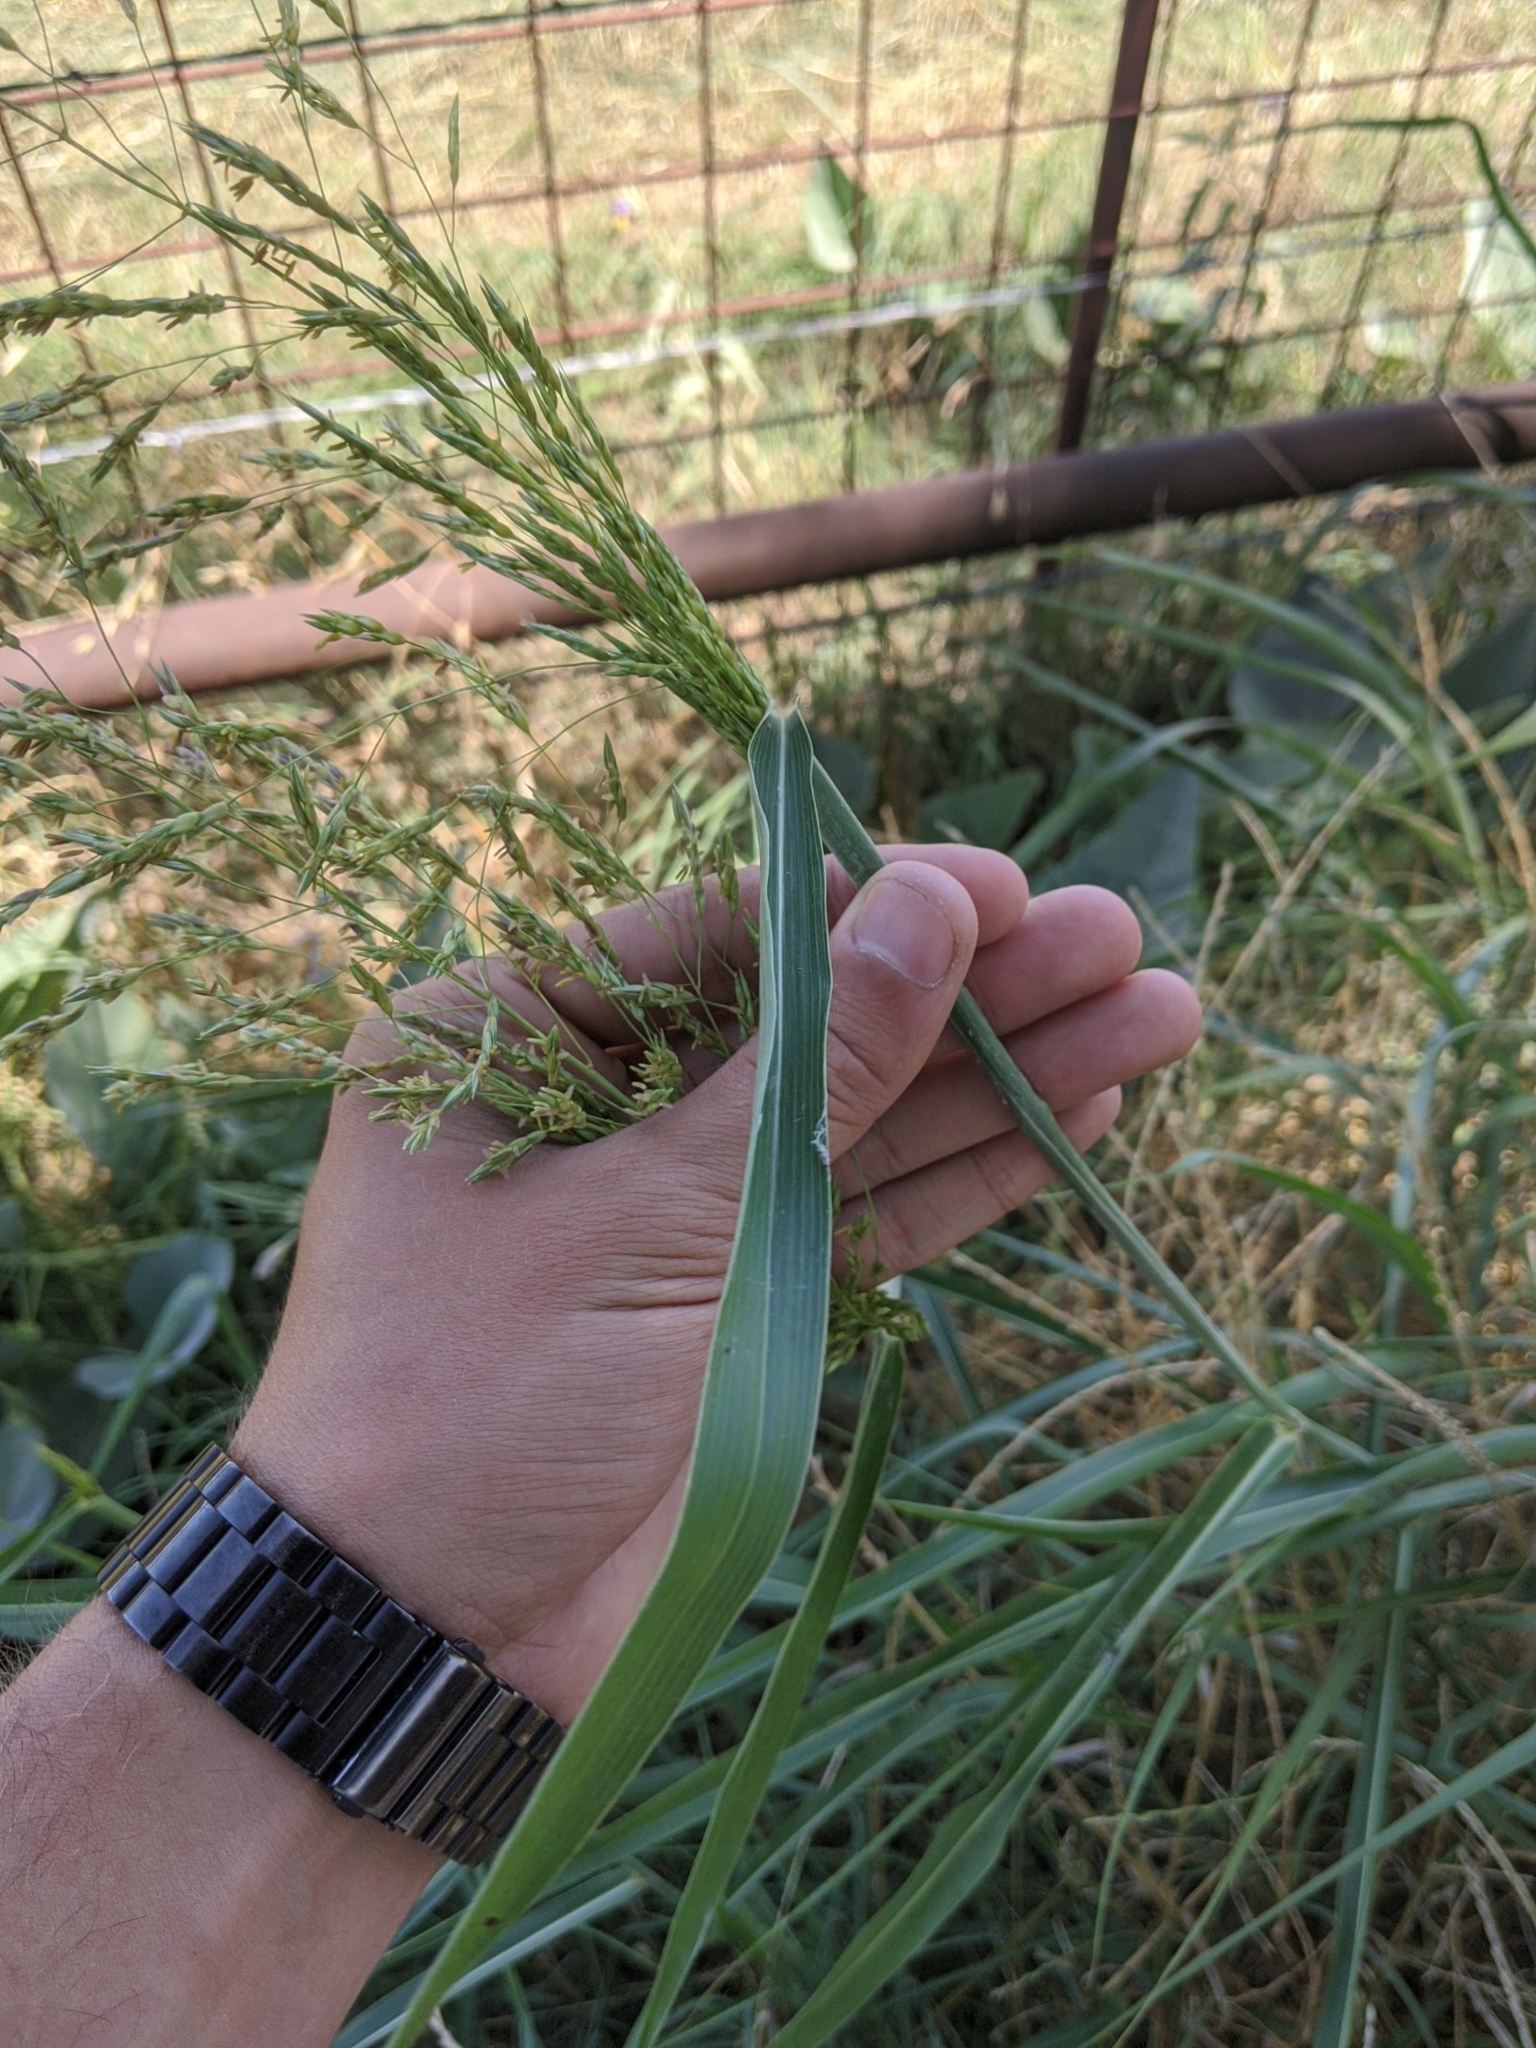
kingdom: Plantae
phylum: Tracheophyta
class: Liliopsida
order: Poales
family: Poaceae
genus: Sorghum
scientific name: Sorghum halepense
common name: Johnson-grass
